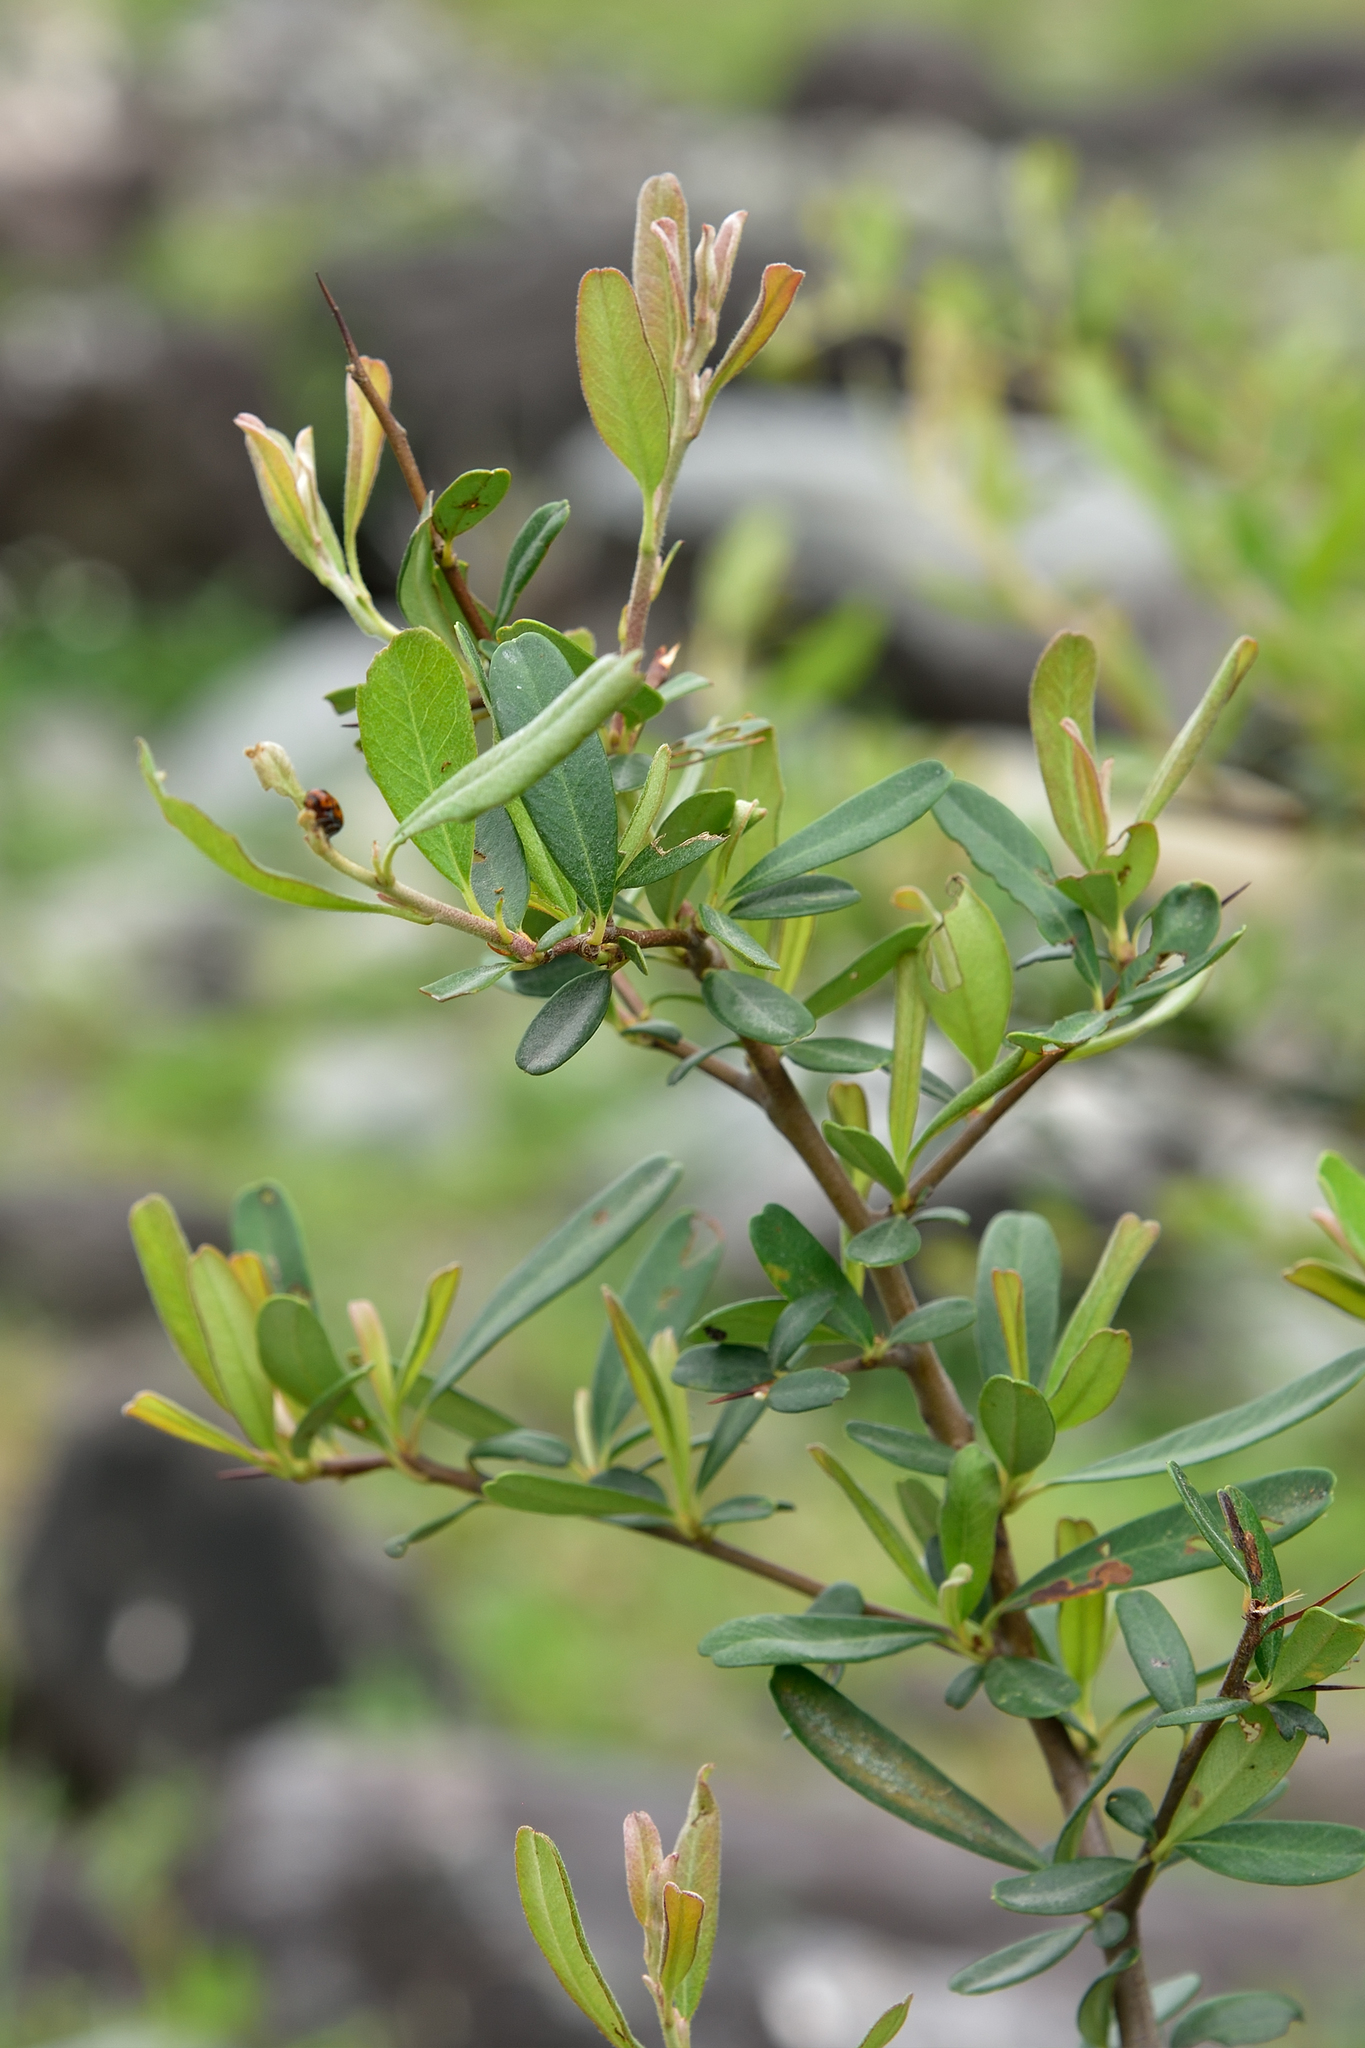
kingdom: Plantae
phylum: Tracheophyta
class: Magnoliopsida
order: Rosales
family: Rosaceae
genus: Pyracantha
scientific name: Pyracantha koidzumii
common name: Formosa firethorn
